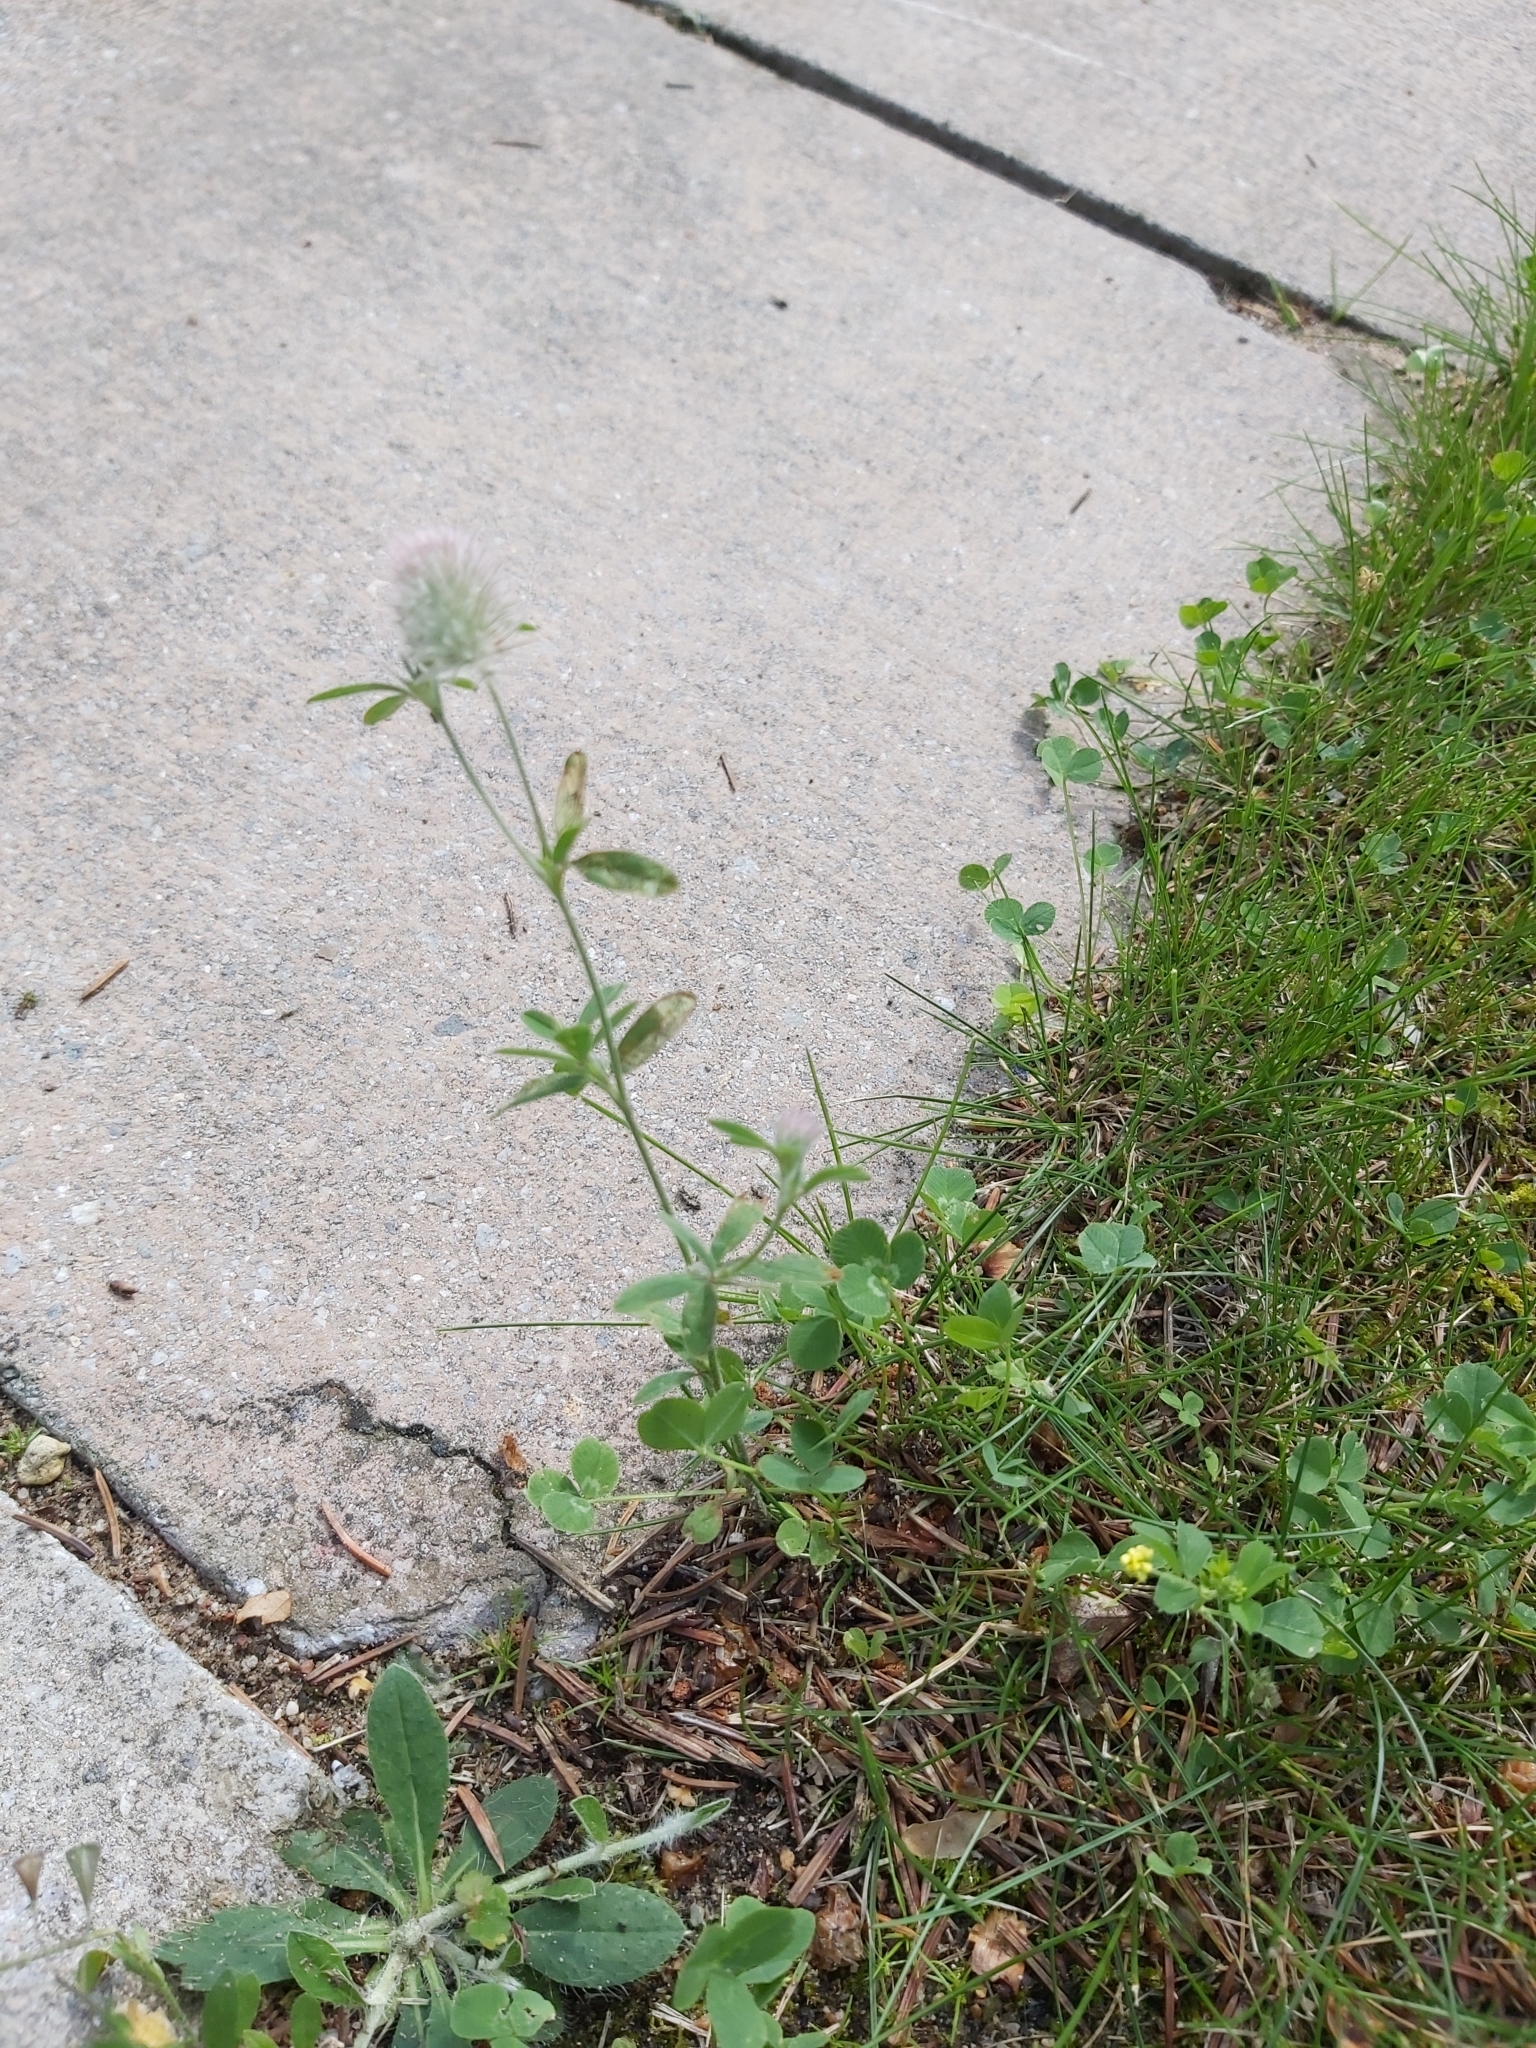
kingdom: Plantae
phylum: Tracheophyta
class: Magnoliopsida
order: Fabales
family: Fabaceae
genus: Trifolium
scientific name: Trifolium arvense
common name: Hare's-foot clover
